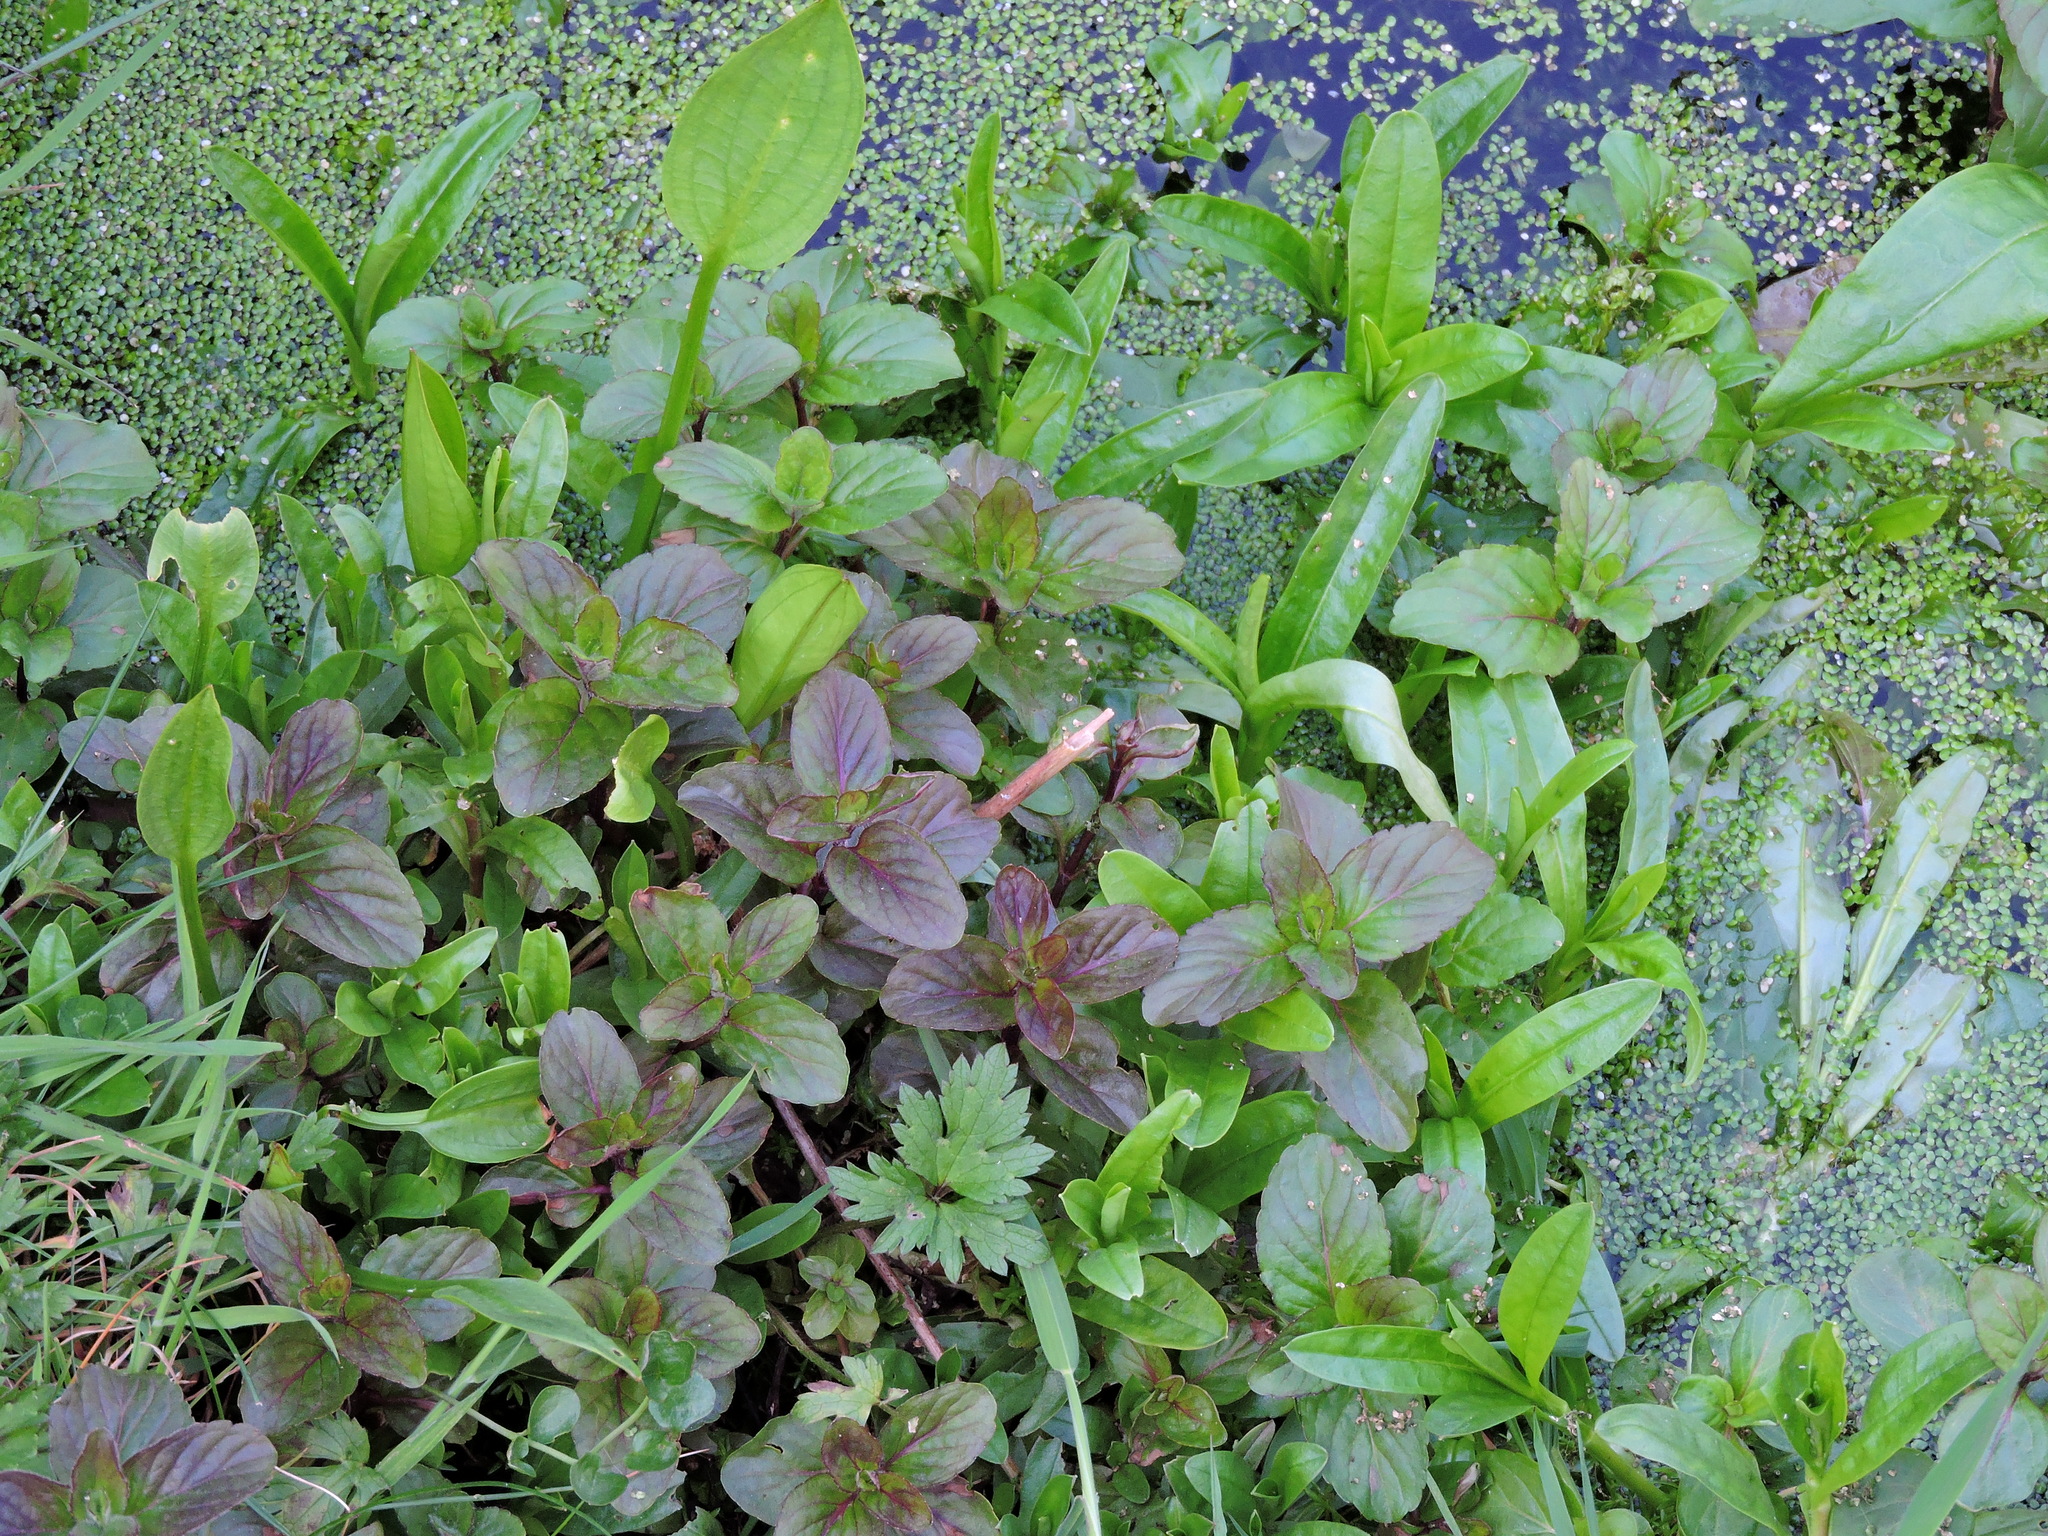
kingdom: Plantae
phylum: Tracheophyta
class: Magnoliopsida
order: Lamiales
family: Lamiaceae
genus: Mentha
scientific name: Mentha aquatica
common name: Water mint
